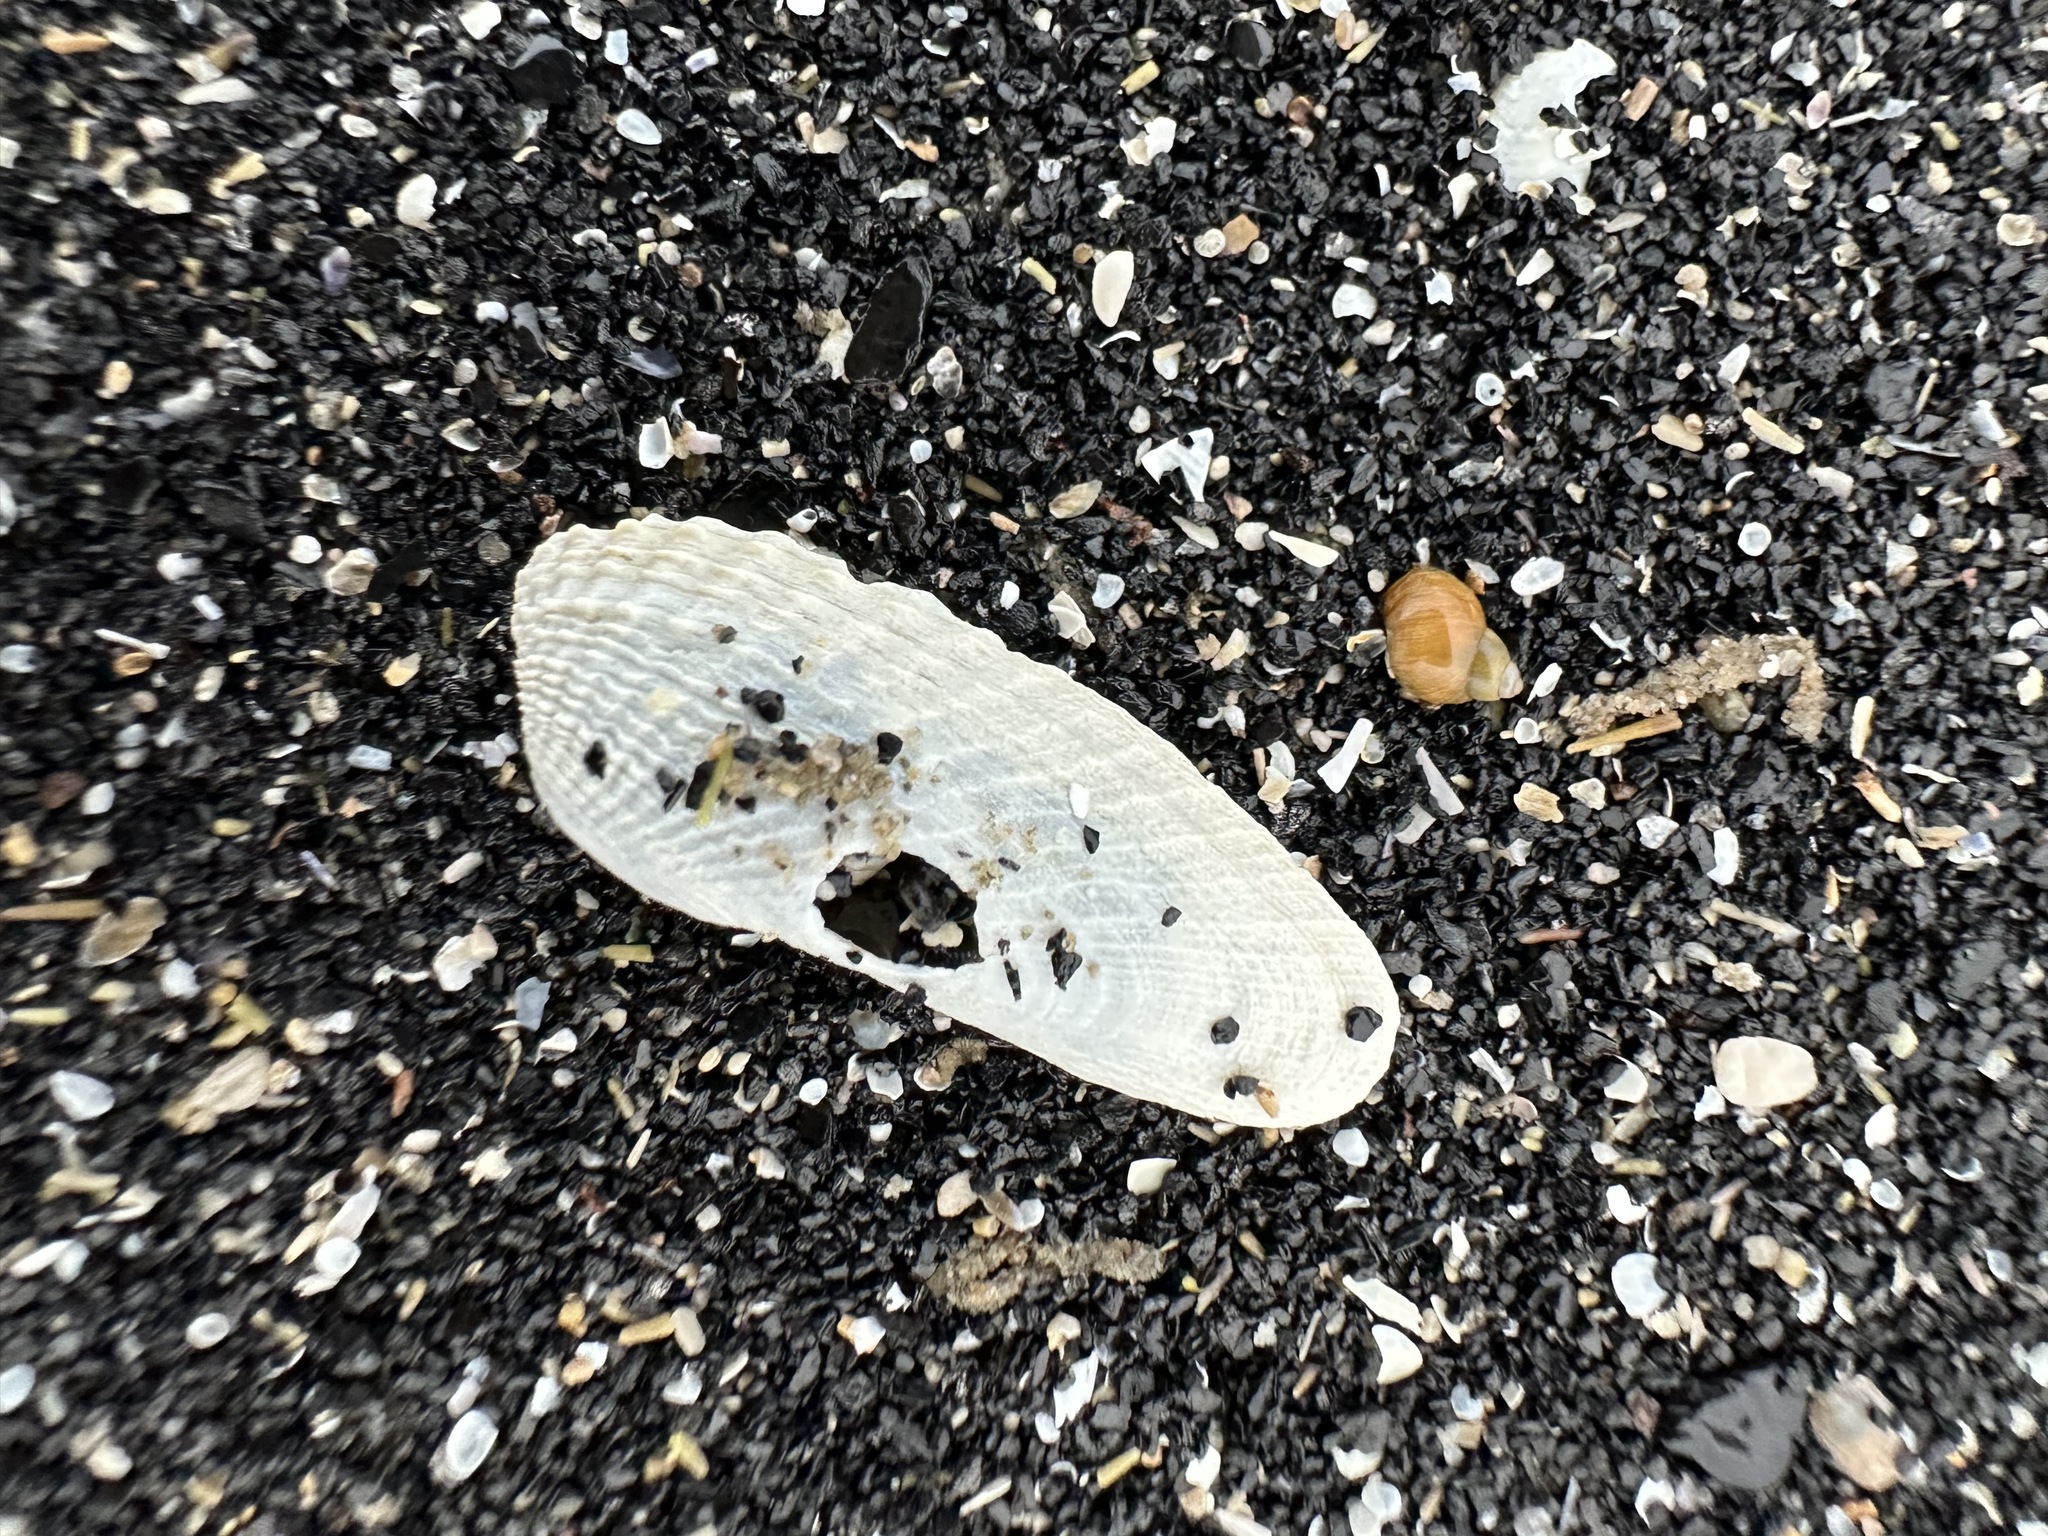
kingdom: Animalia
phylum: Mollusca
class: Bivalvia
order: Venerida
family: Veneridae
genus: Petricolaria
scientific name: Petricolaria pholadiformis
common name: American piddock
